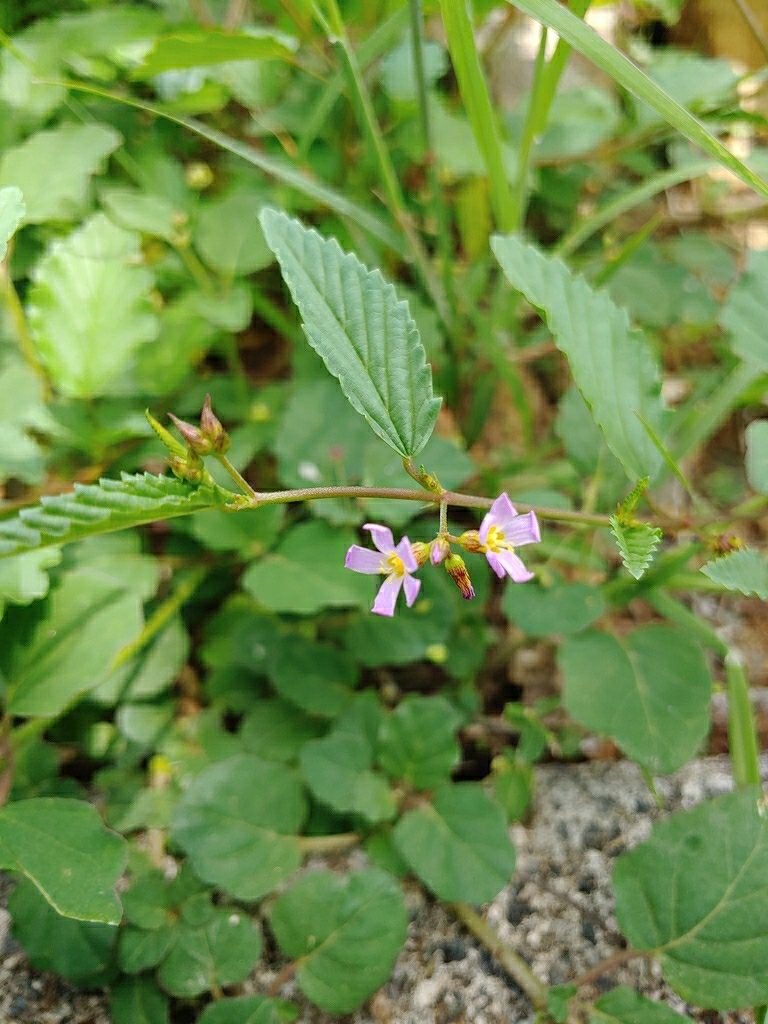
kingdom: Plantae
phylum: Tracheophyta
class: Magnoliopsida
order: Malvales
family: Malvaceae
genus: Melochia
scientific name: Melochia pyramidata
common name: Pyramidflower
